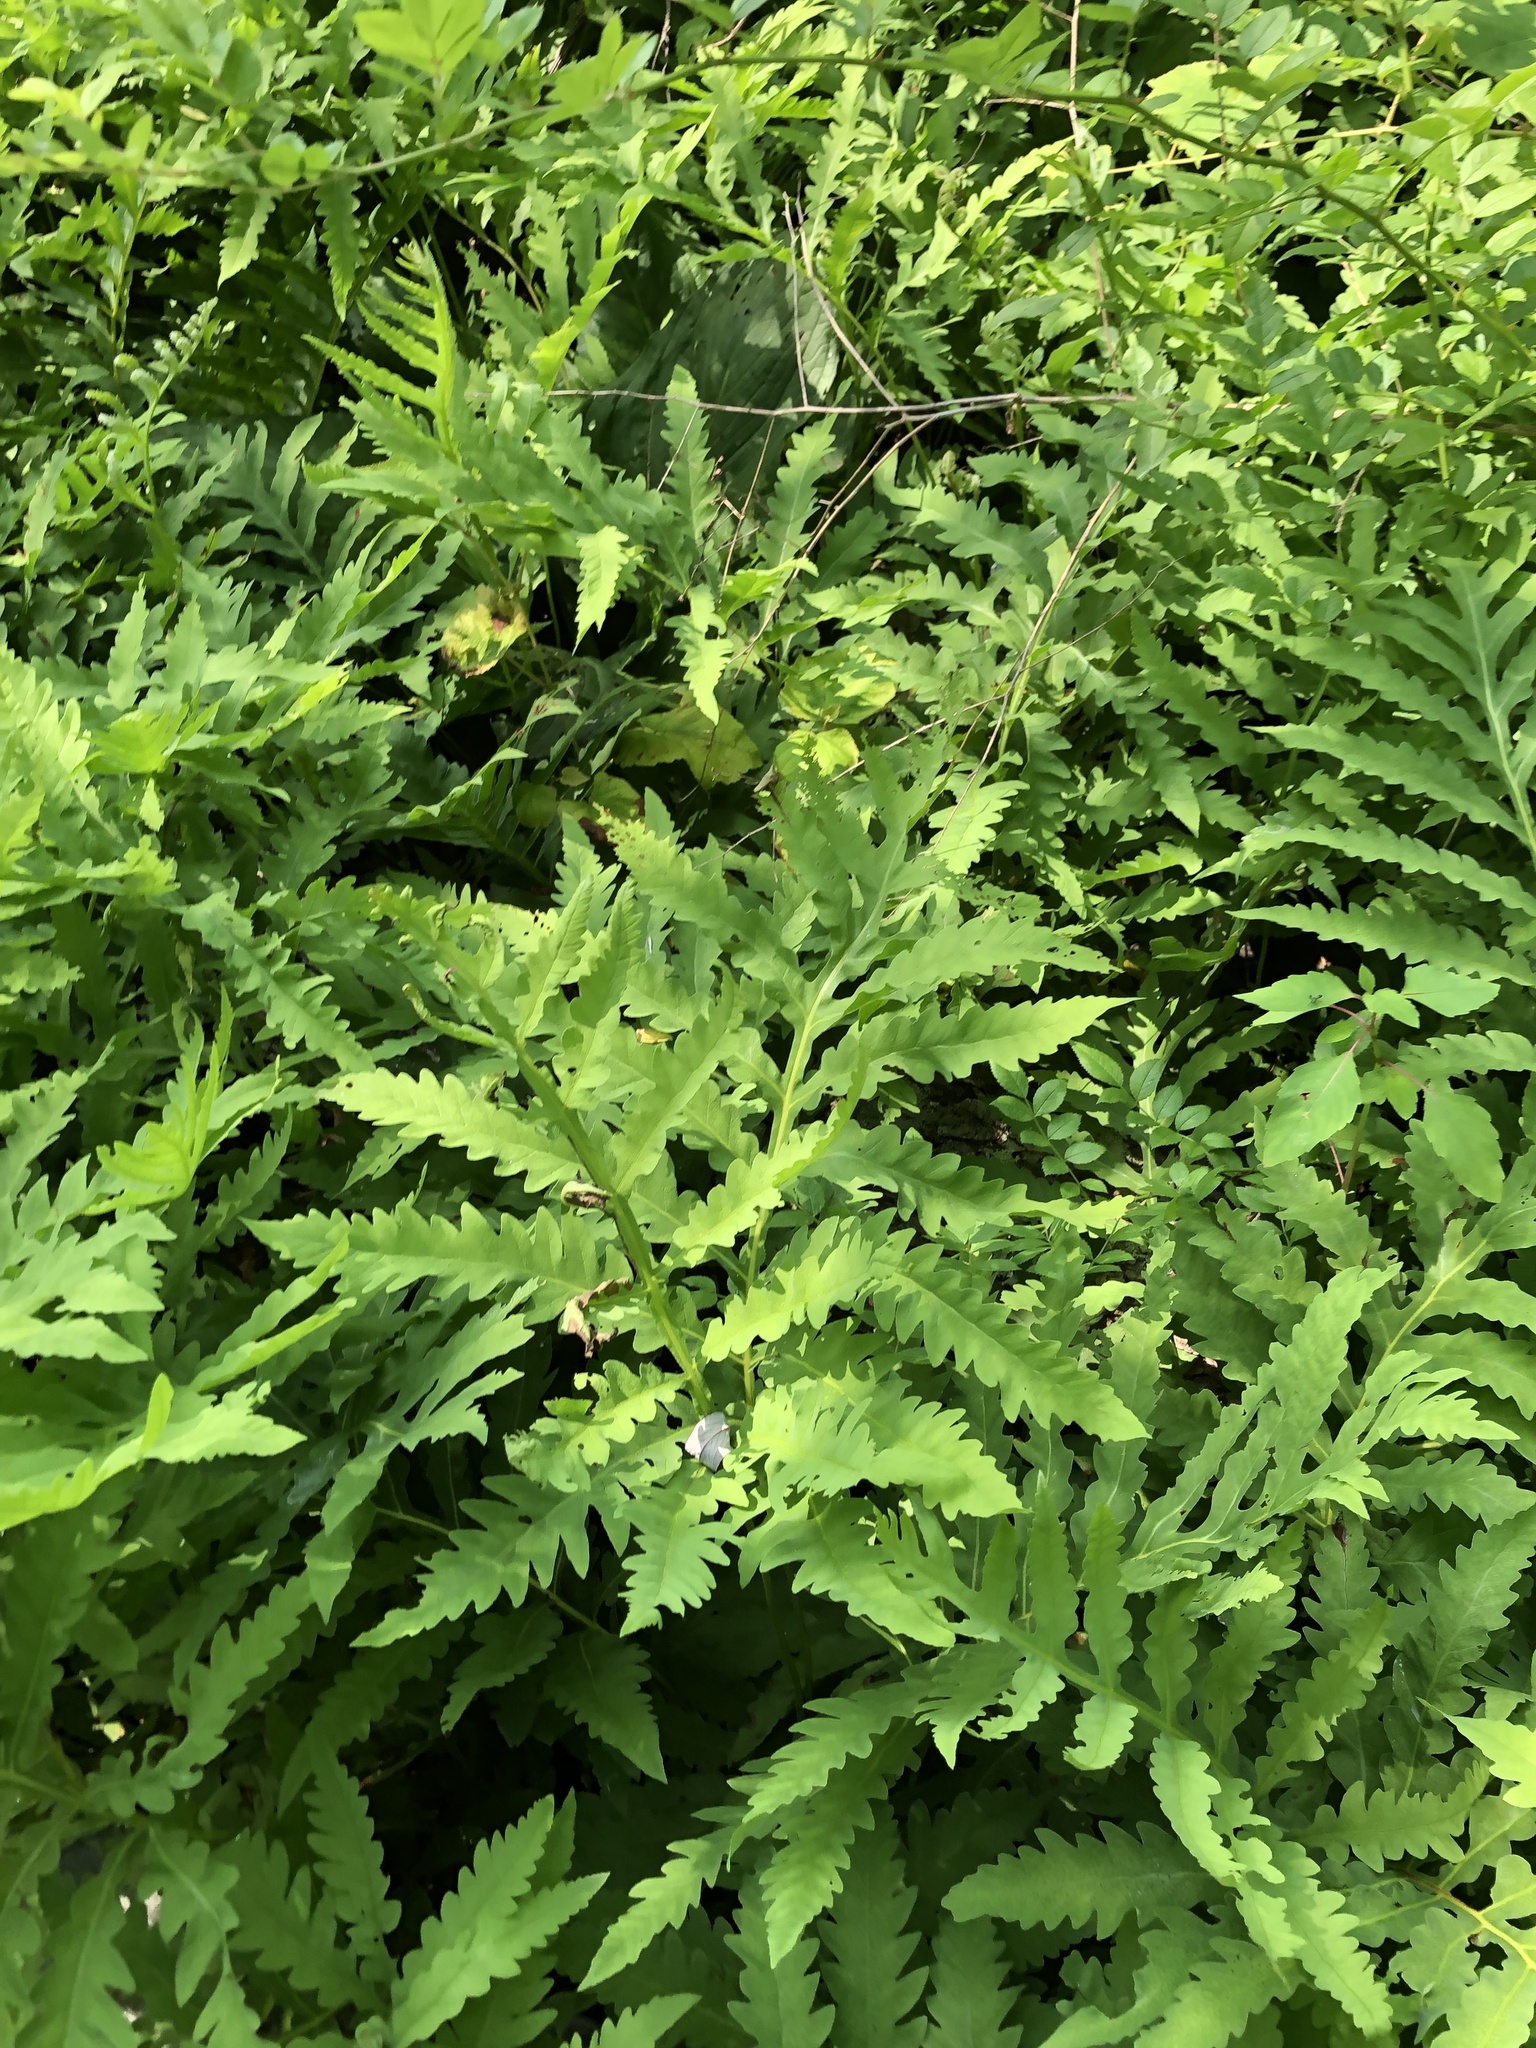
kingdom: Plantae
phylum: Tracheophyta
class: Polypodiopsida
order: Polypodiales
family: Onocleaceae
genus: Onoclea
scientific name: Onoclea sensibilis
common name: Sensitive fern
